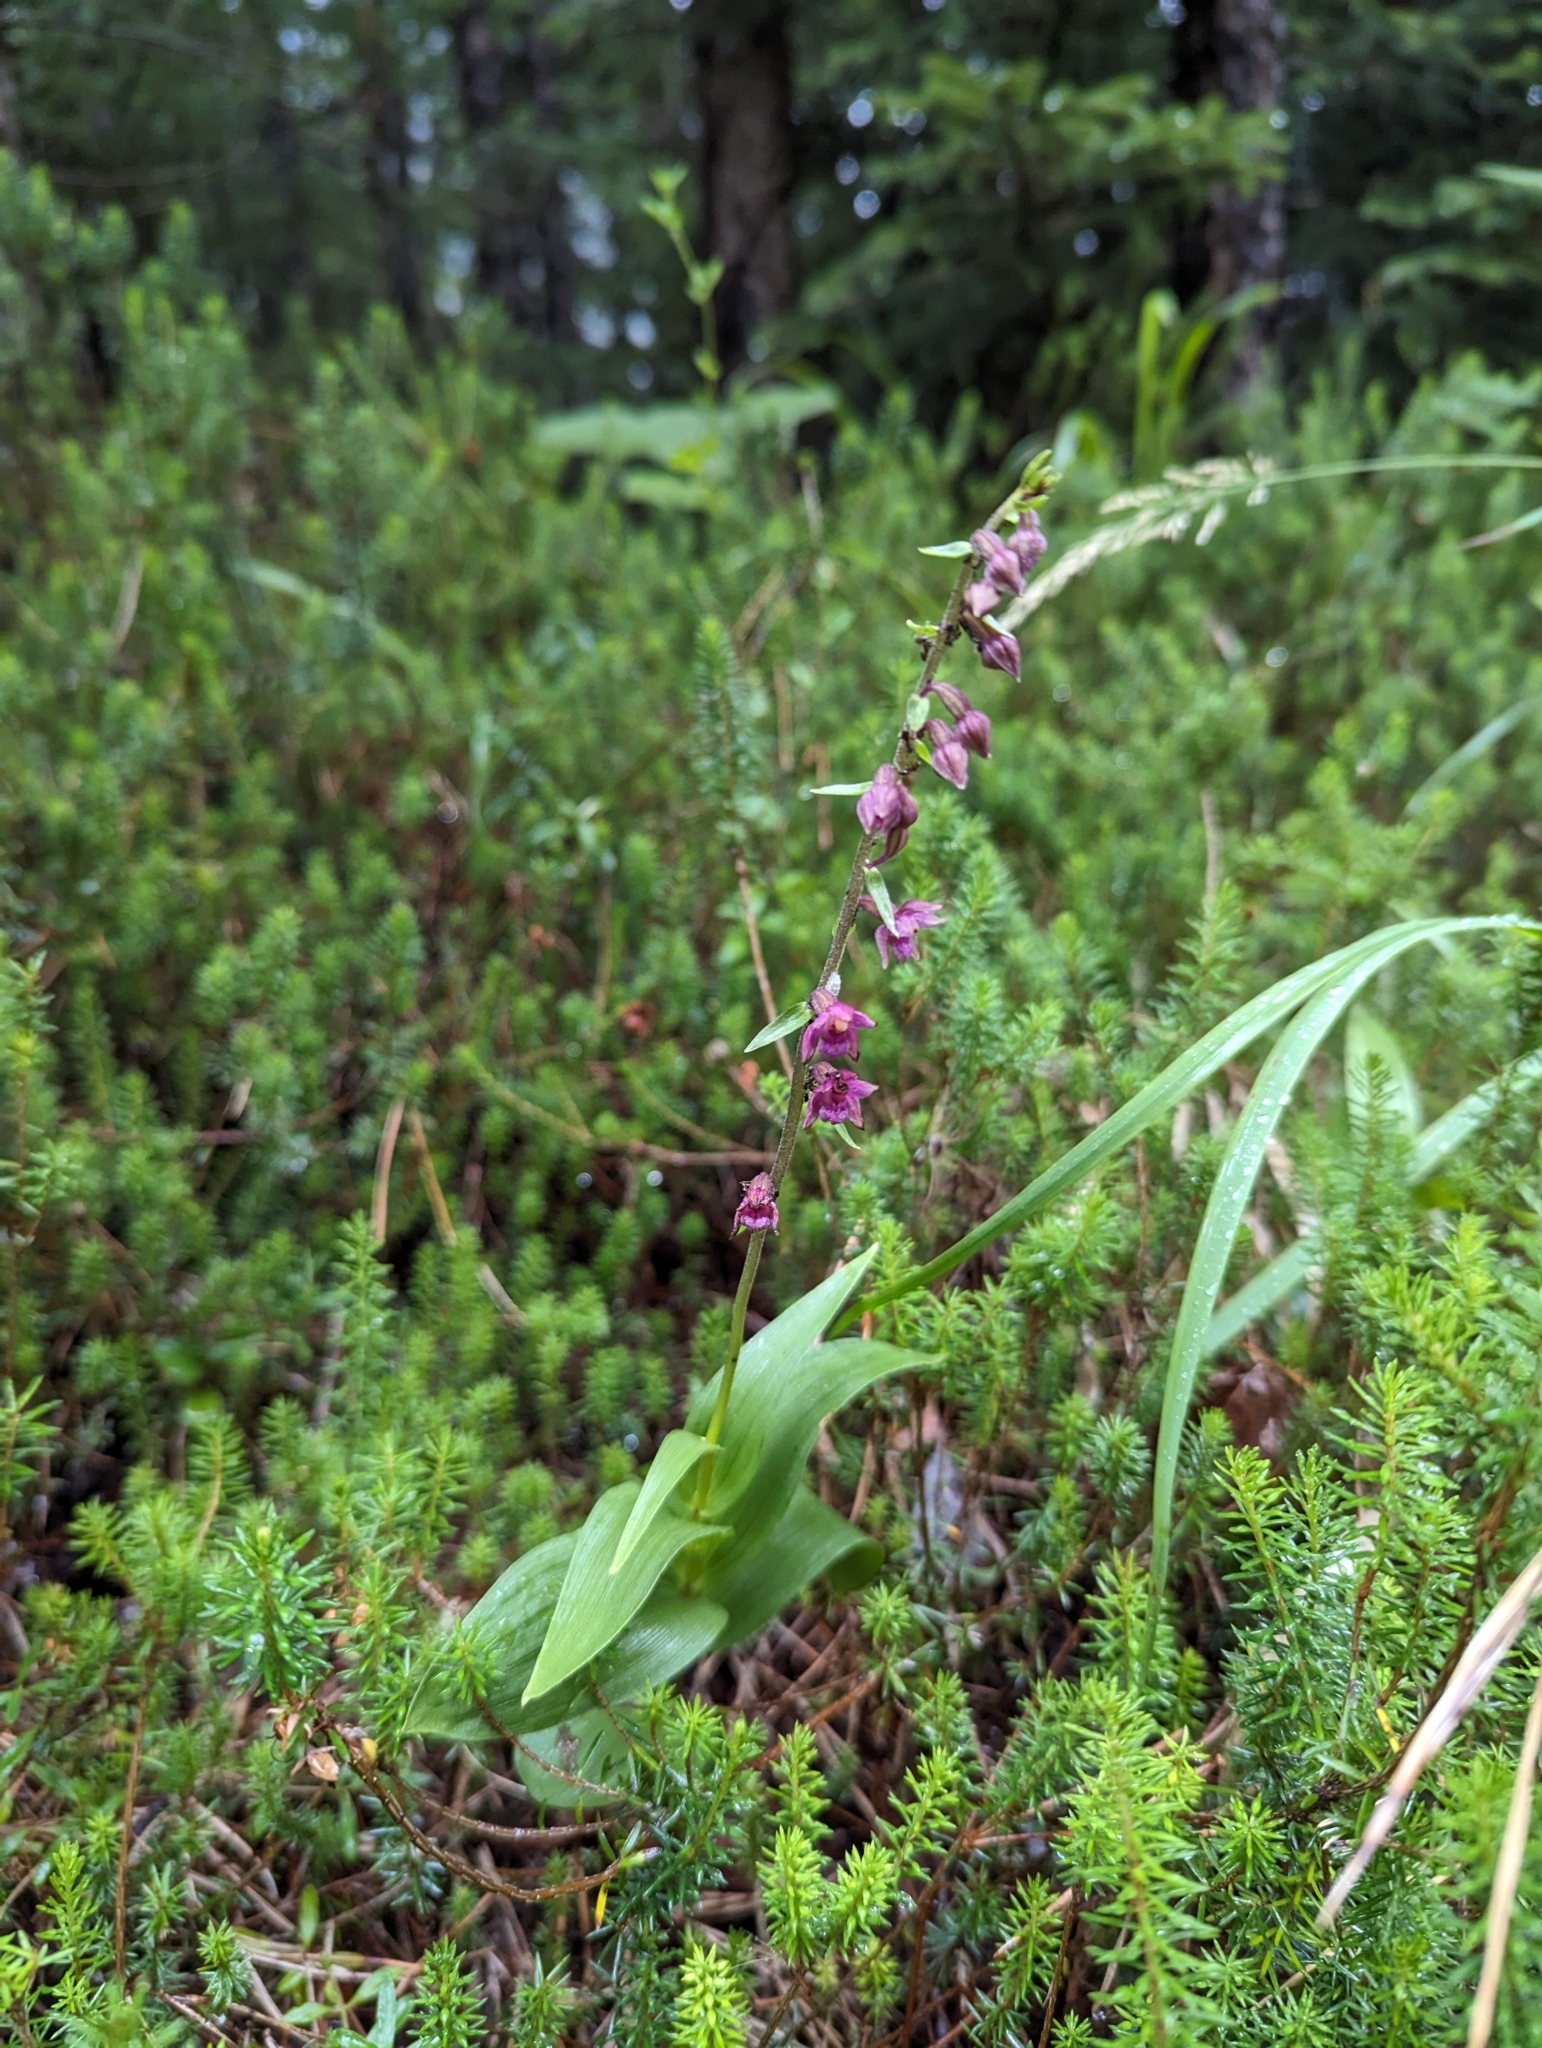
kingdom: Plantae
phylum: Tracheophyta
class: Liliopsida
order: Asparagales
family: Orchidaceae
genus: Epipactis
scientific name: Epipactis atrorubens
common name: Dark-red helleborine
